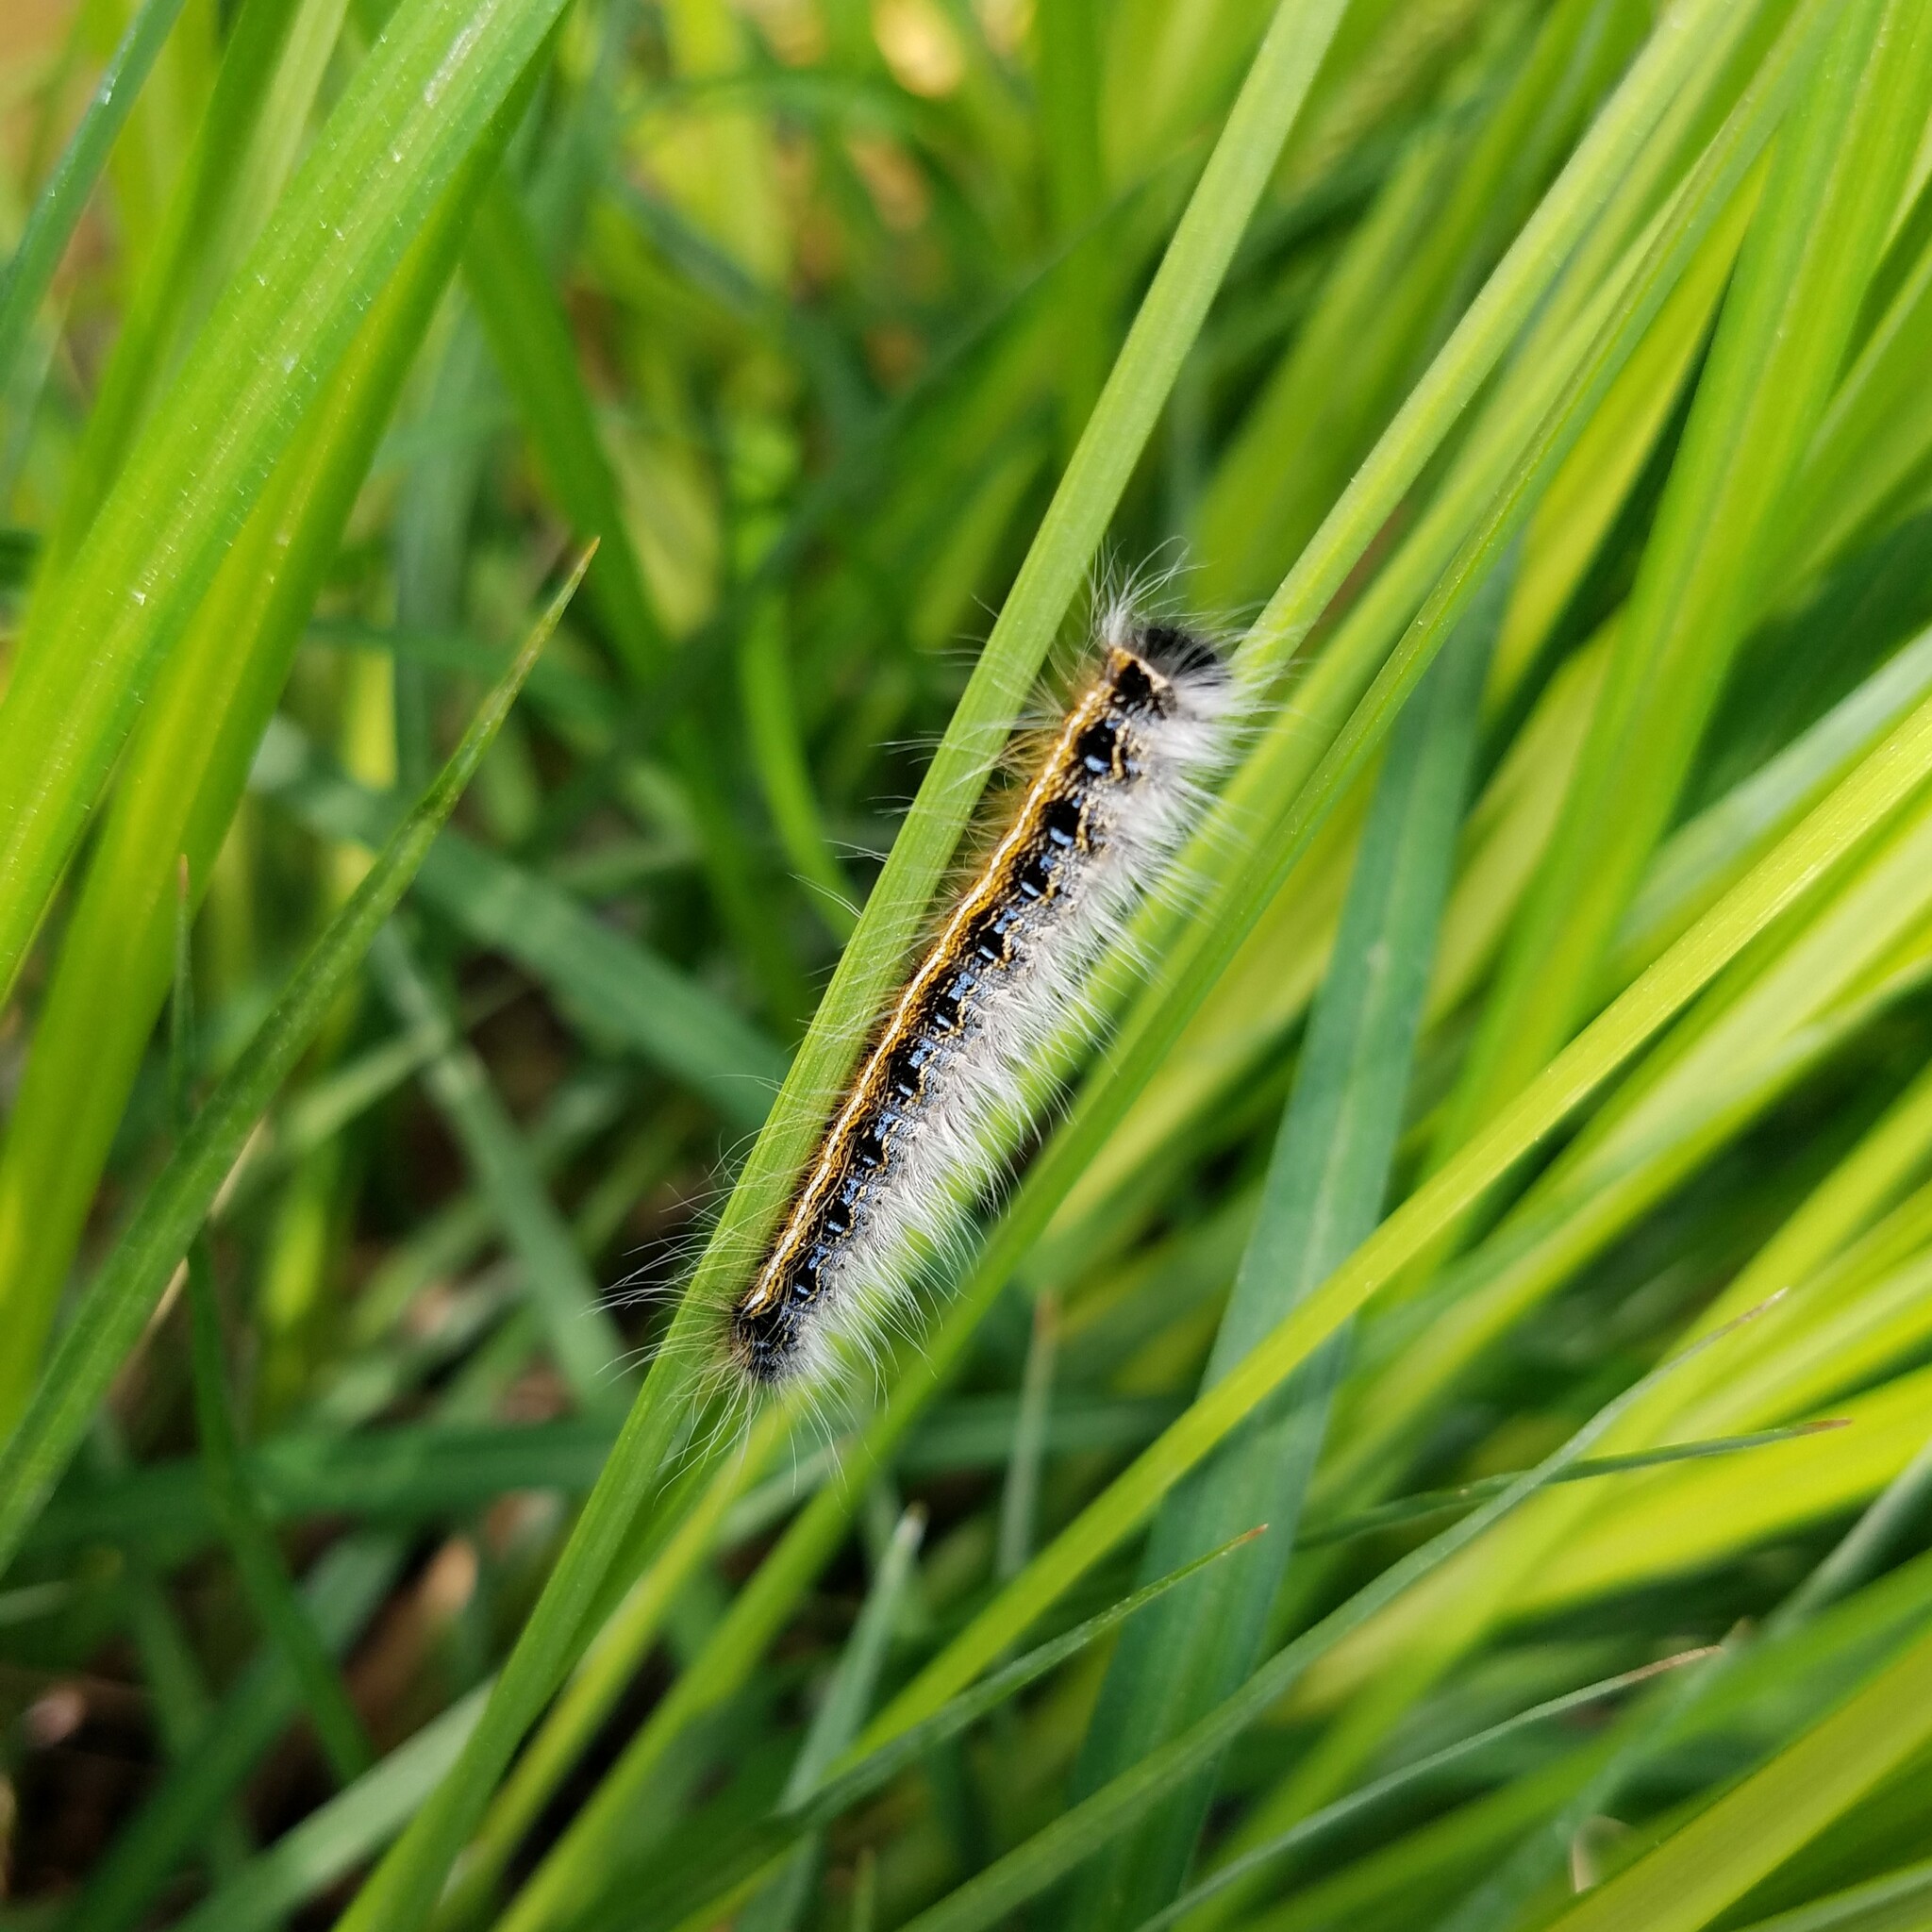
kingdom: Animalia
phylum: Arthropoda
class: Insecta
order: Lepidoptera
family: Lasiocampidae
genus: Malacosoma
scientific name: Malacosoma americana
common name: Eastern tent caterpillar moth
